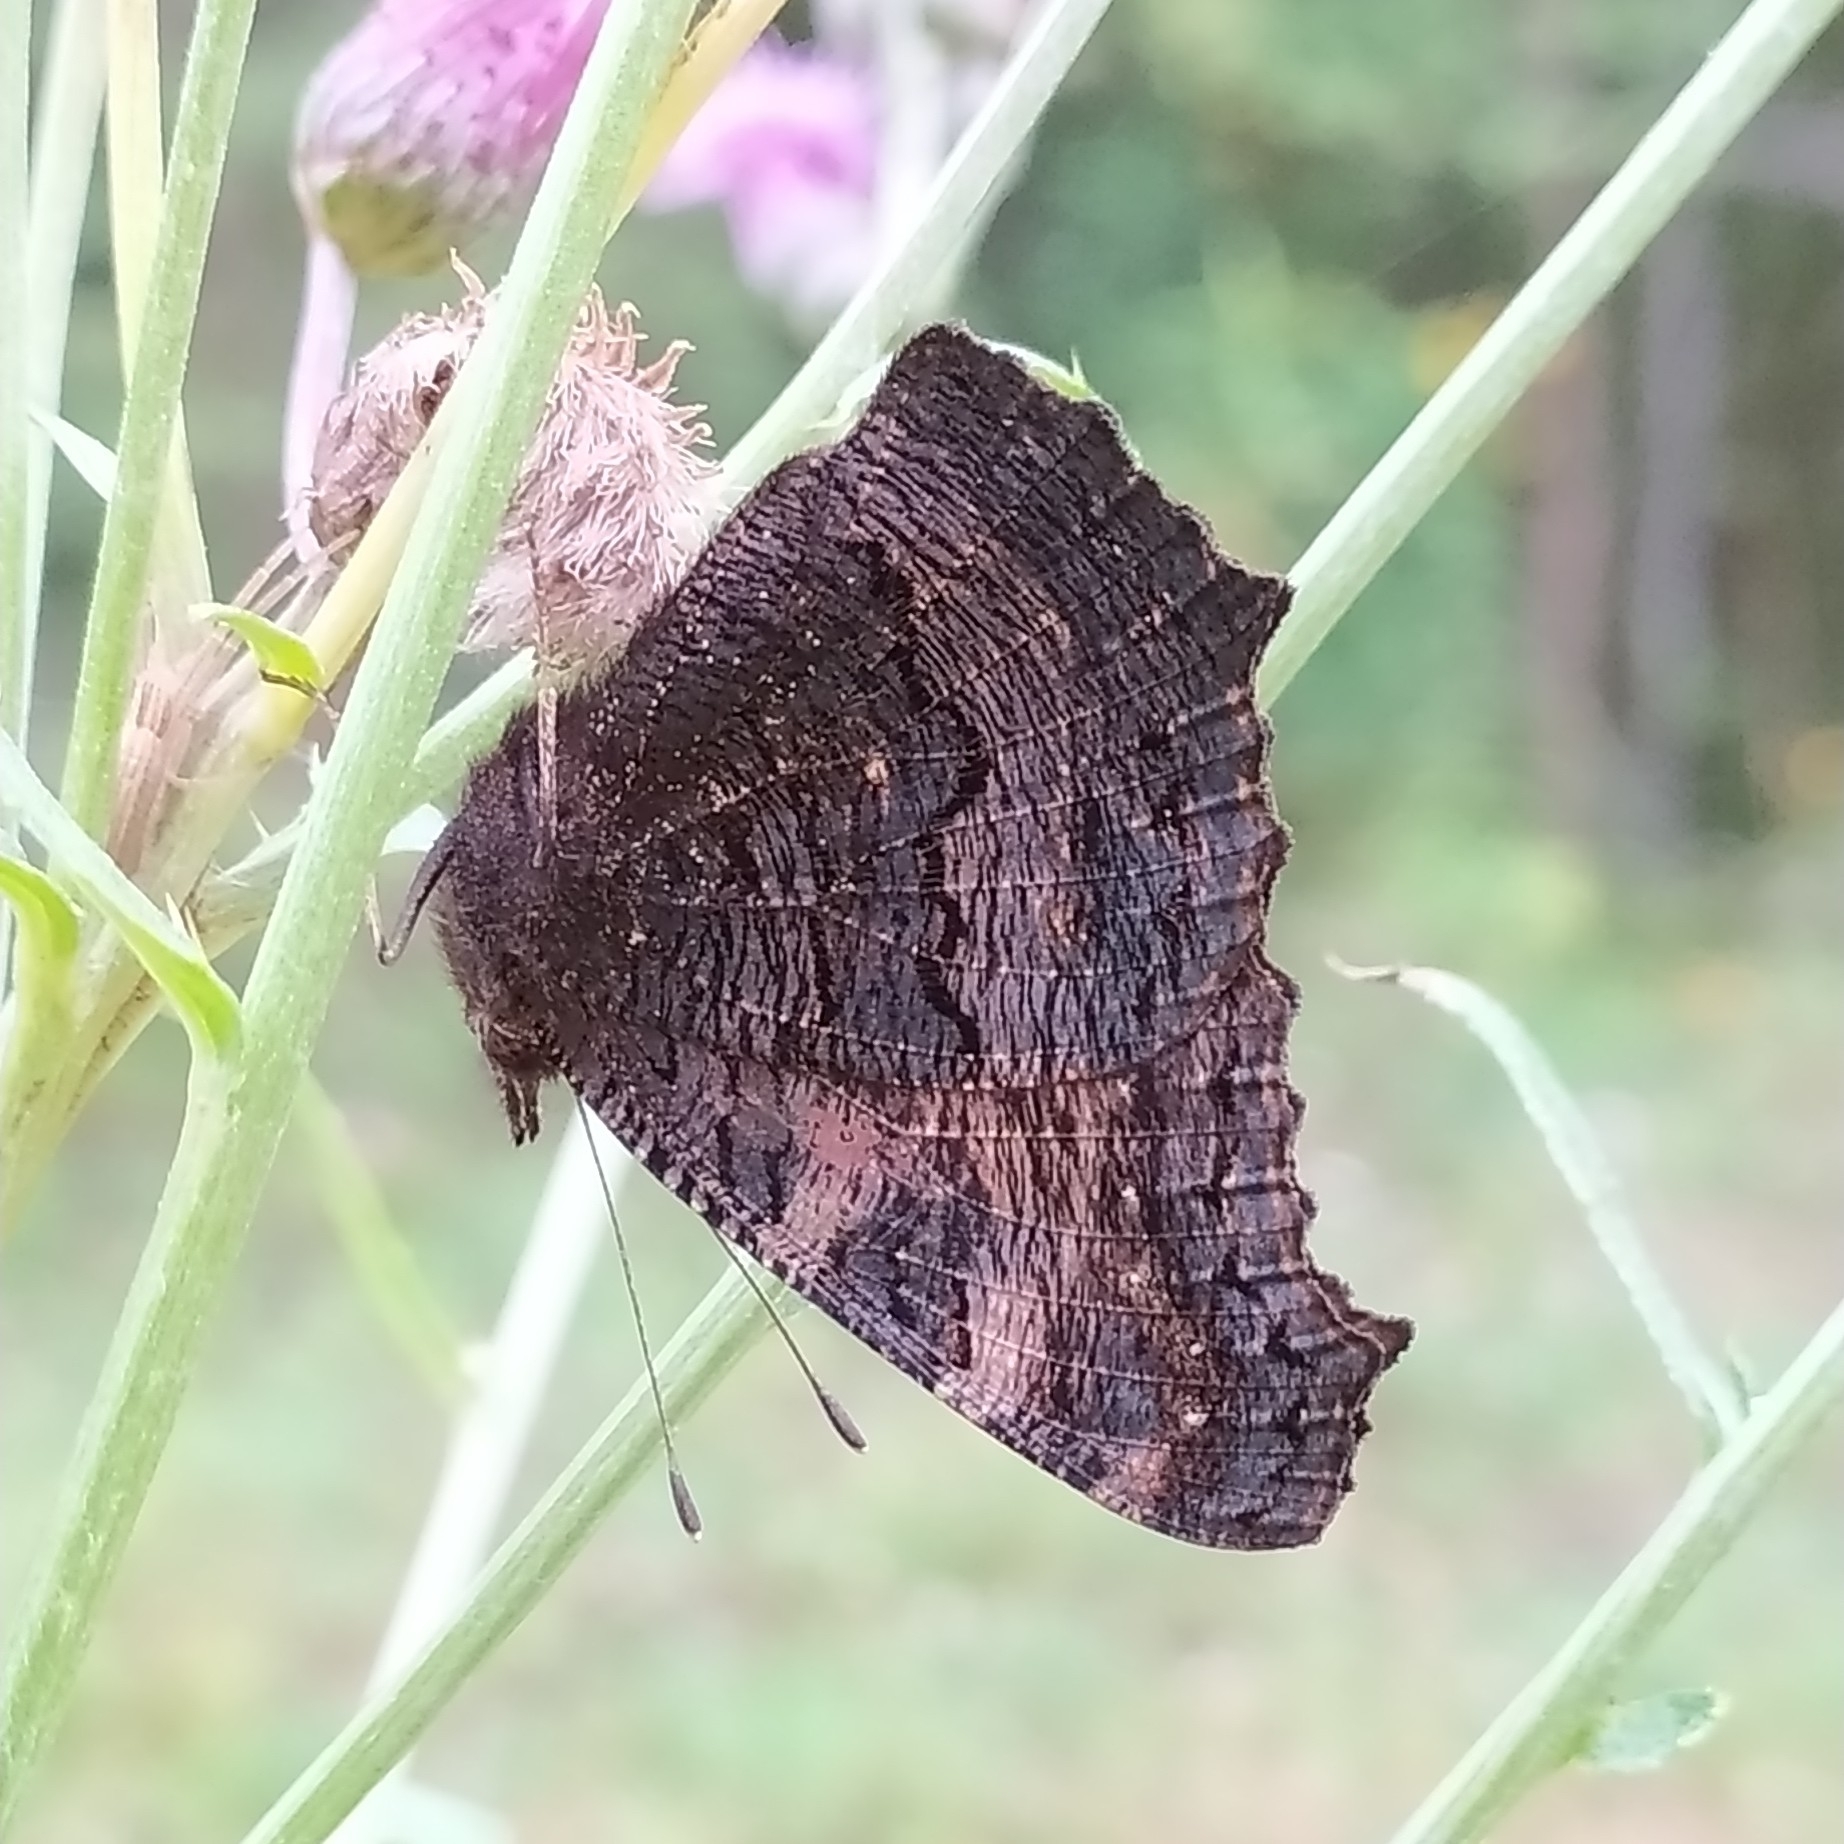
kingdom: Animalia
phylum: Arthropoda
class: Insecta
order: Lepidoptera
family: Nymphalidae
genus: Aglais
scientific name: Aglais urticae
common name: Small tortoiseshell
